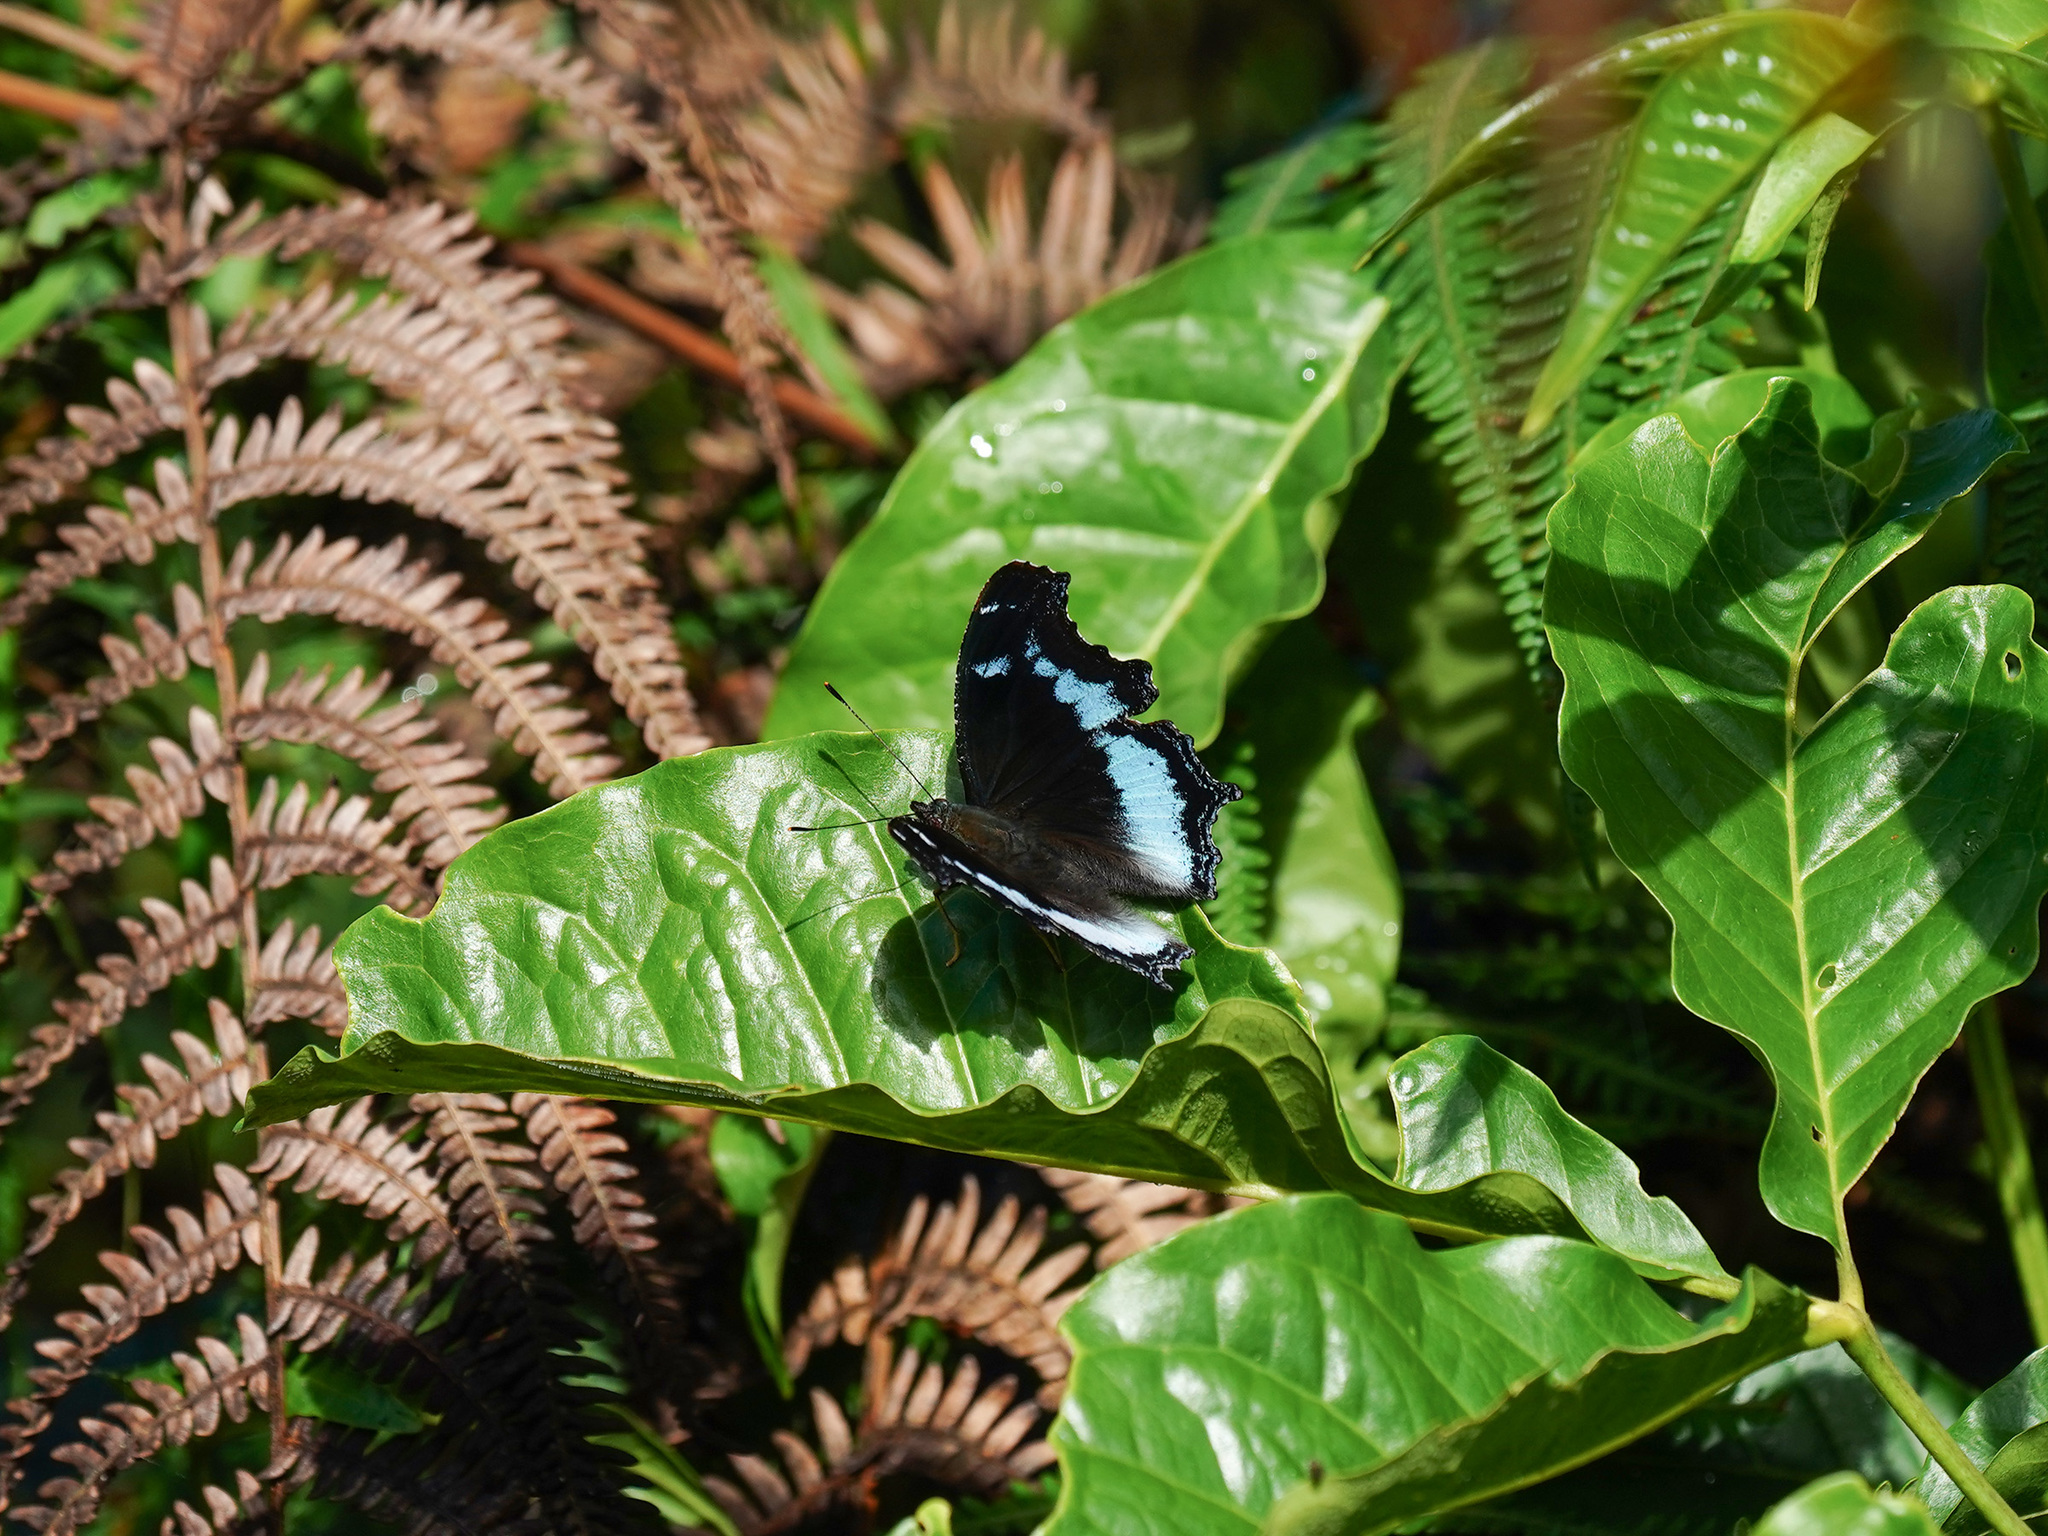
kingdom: Animalia
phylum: Arthropoda
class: Insecta
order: Lepidoptera
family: Nymphalidae
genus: Vanessa
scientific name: Vanessa Kaniska canace
